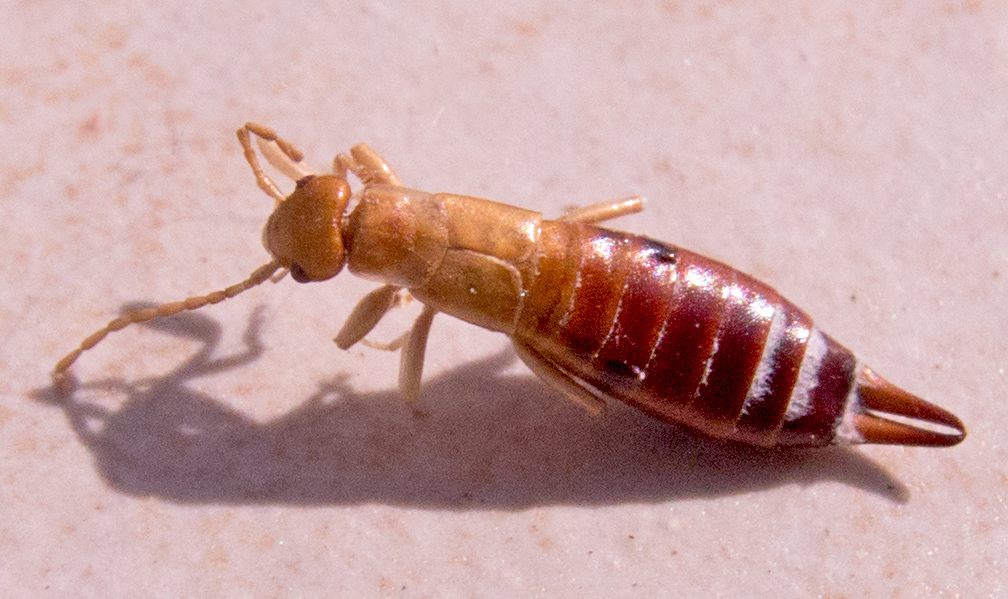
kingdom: Animalia
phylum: Arthropoda
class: Insecta
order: Dermaptera
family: Forficulidae
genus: Apterygida
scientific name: Apterygida albipennis
